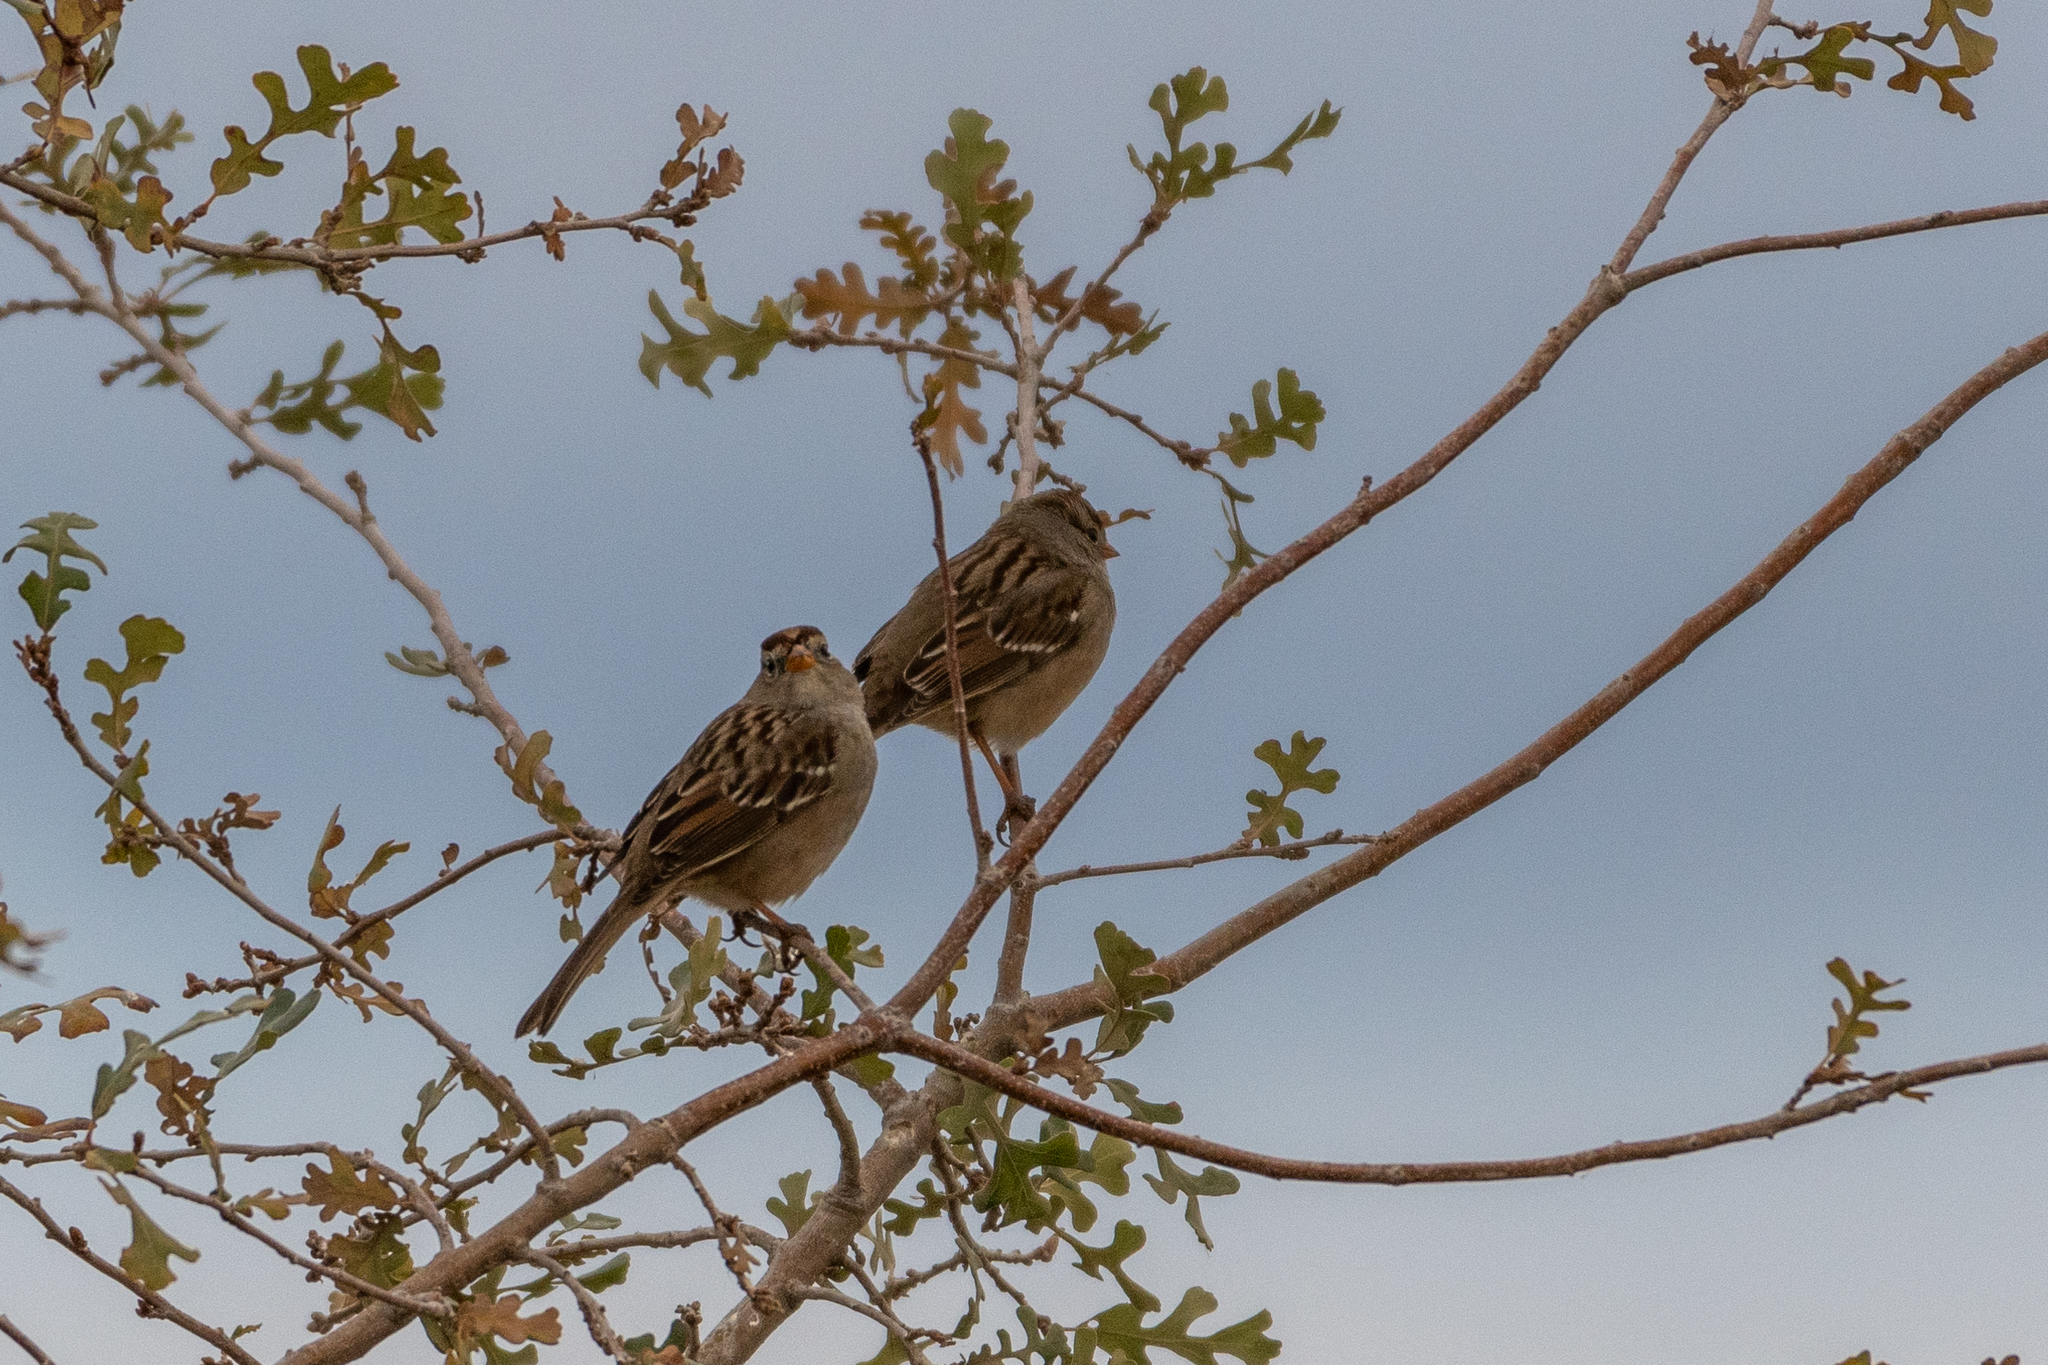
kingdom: Animalia
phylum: Chordata
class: Aves
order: Passeriformes
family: Passerellidae
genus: Zonotrichia
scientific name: Zonotrichia leucophrys
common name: White-crowned sparrow
